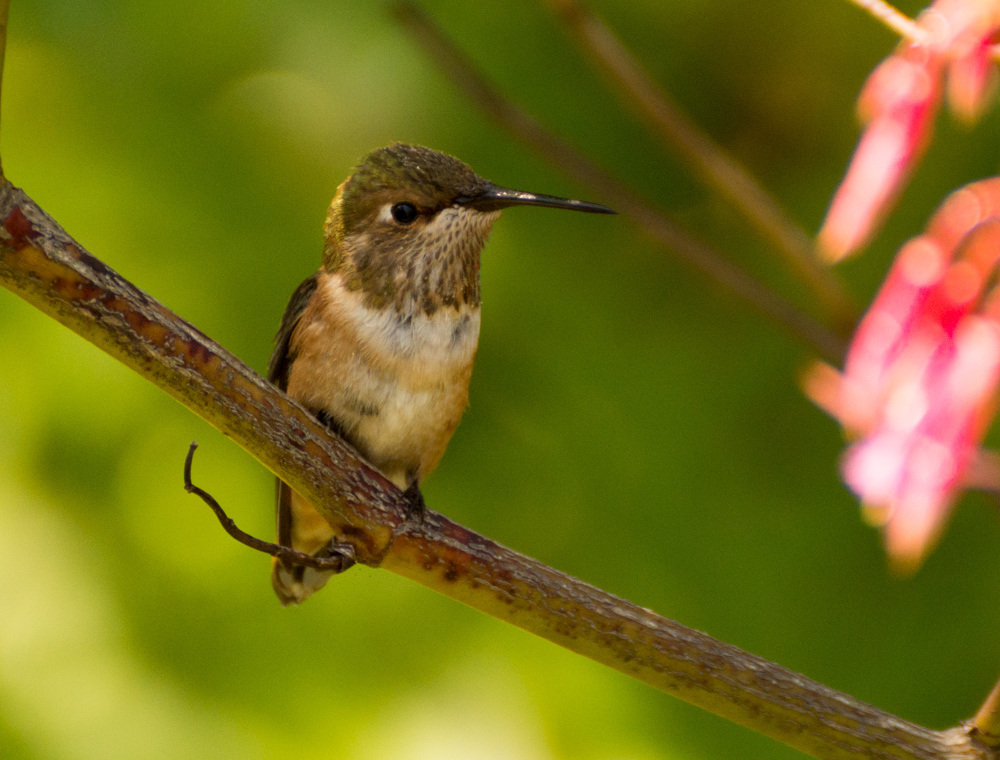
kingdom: Animalia
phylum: Chordata
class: Aves
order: Apodiformes
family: Trochilidae
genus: Selasphorus
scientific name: Selasphorus
